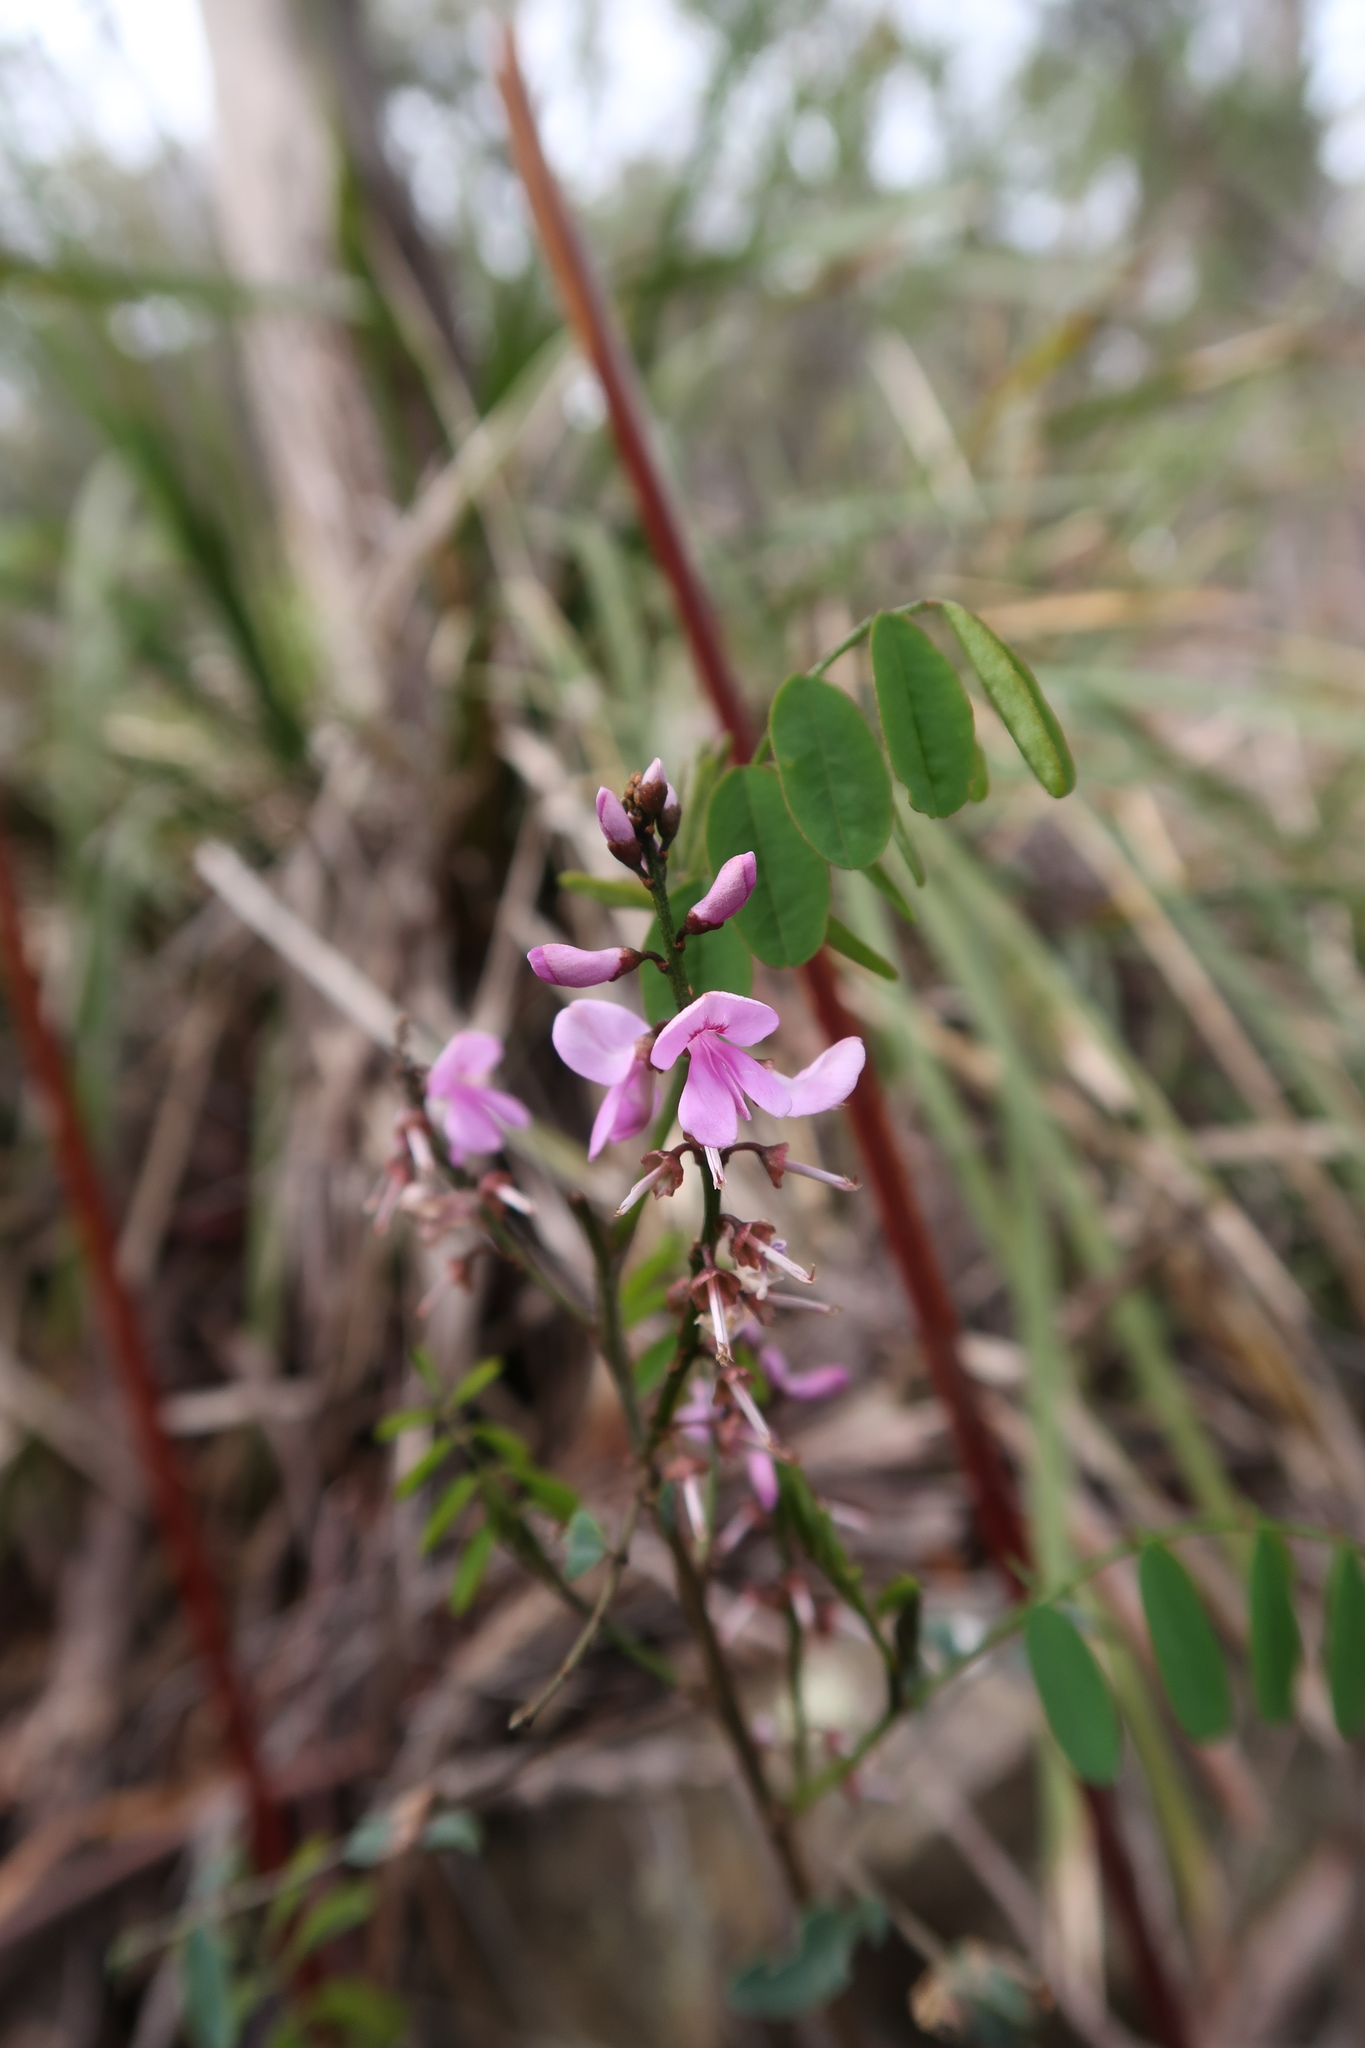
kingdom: Plantae
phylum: Tracheophyta
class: Magnoliopsida
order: Fabales
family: Fabaceae
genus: Indigofera
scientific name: Indigofera australis
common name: Australian indigo
